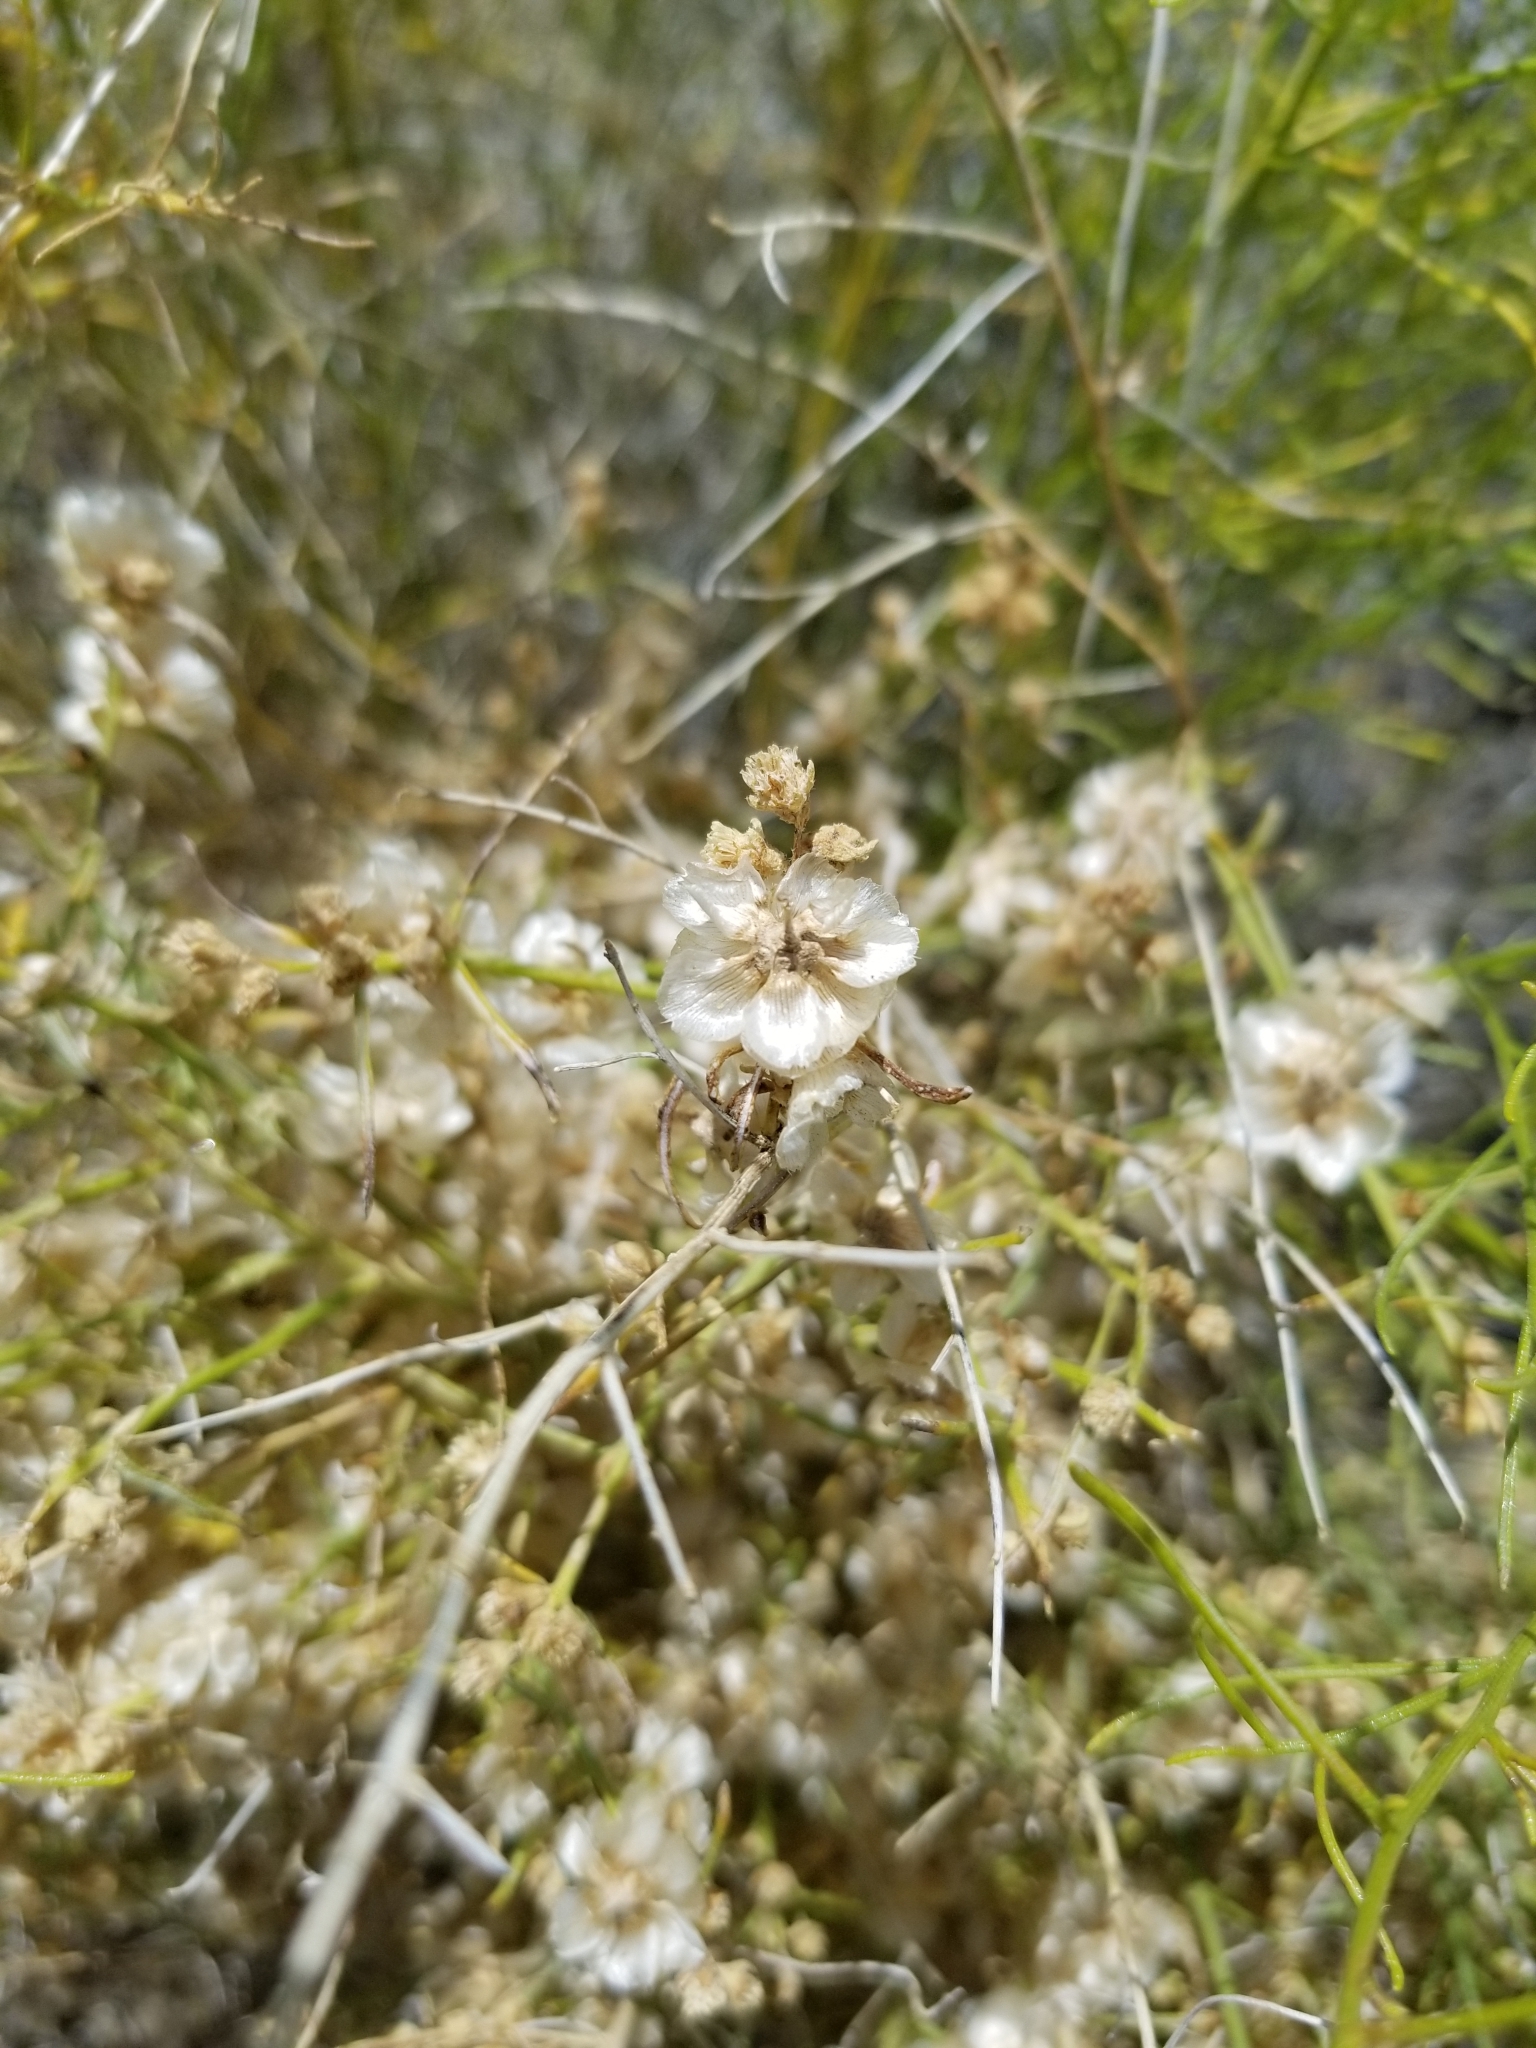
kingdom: Plantae
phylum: Tracheophyta
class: Magnoliopsida
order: Asterales
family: Asteraceae
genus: Ambrosia
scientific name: Ambrosia salsola
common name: Burrobrush
